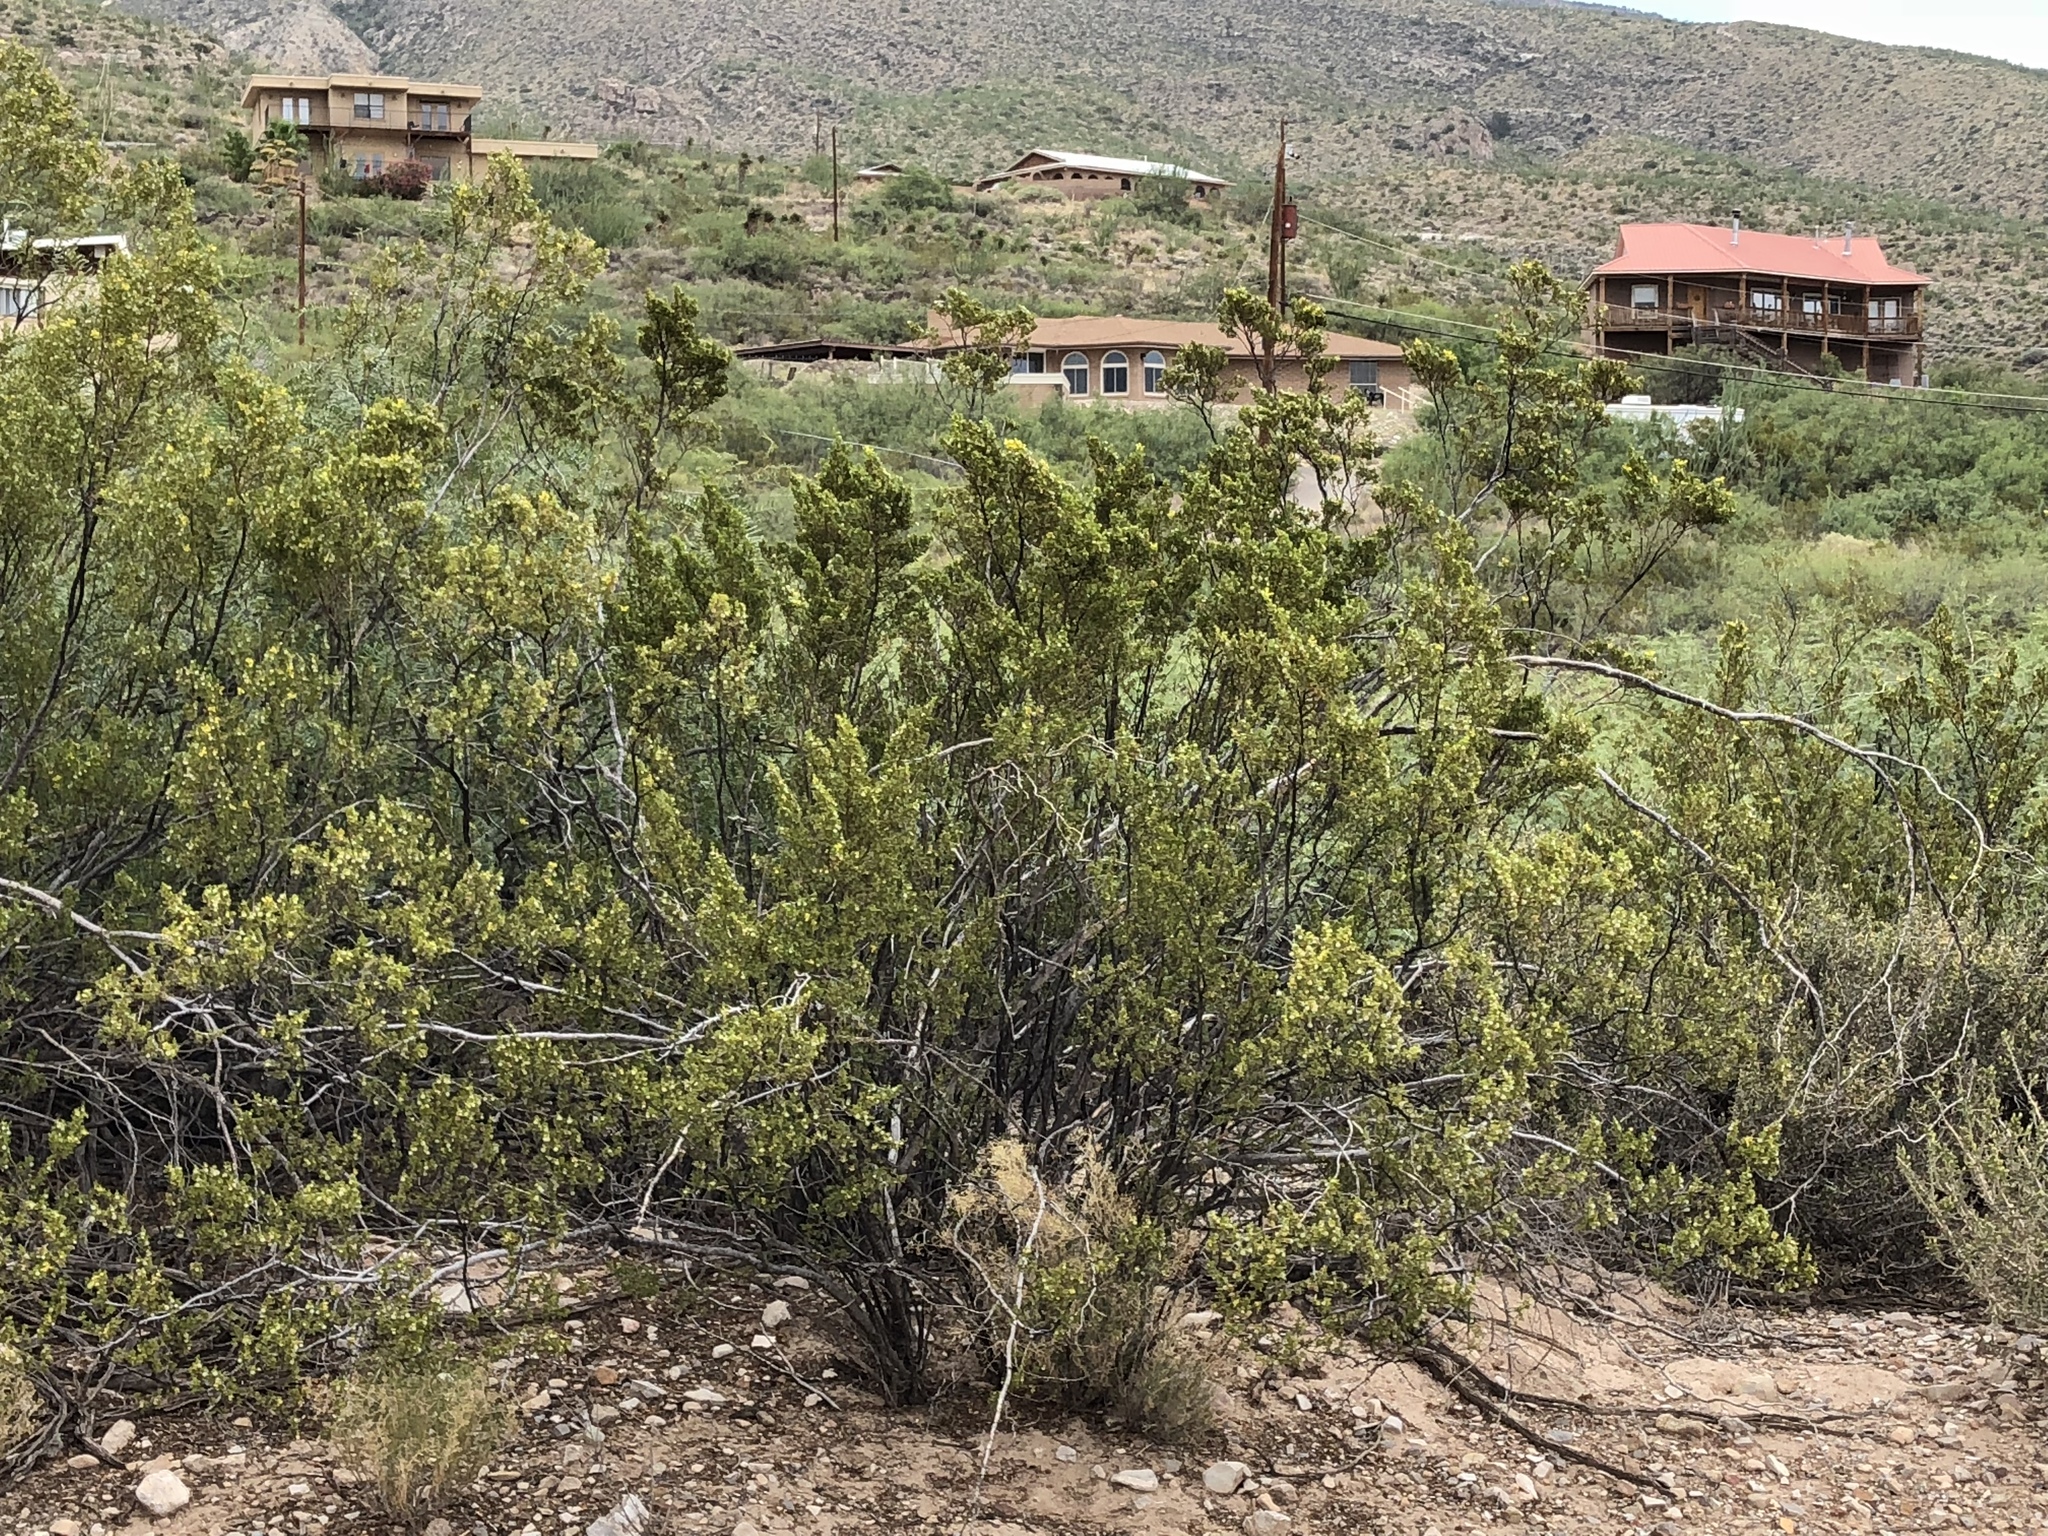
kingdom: Plantae
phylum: Tracheophyta
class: Magnoliopsida
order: Zygophyllales
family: Zygophyllaceae
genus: Larrea
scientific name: Larrea tridentata
